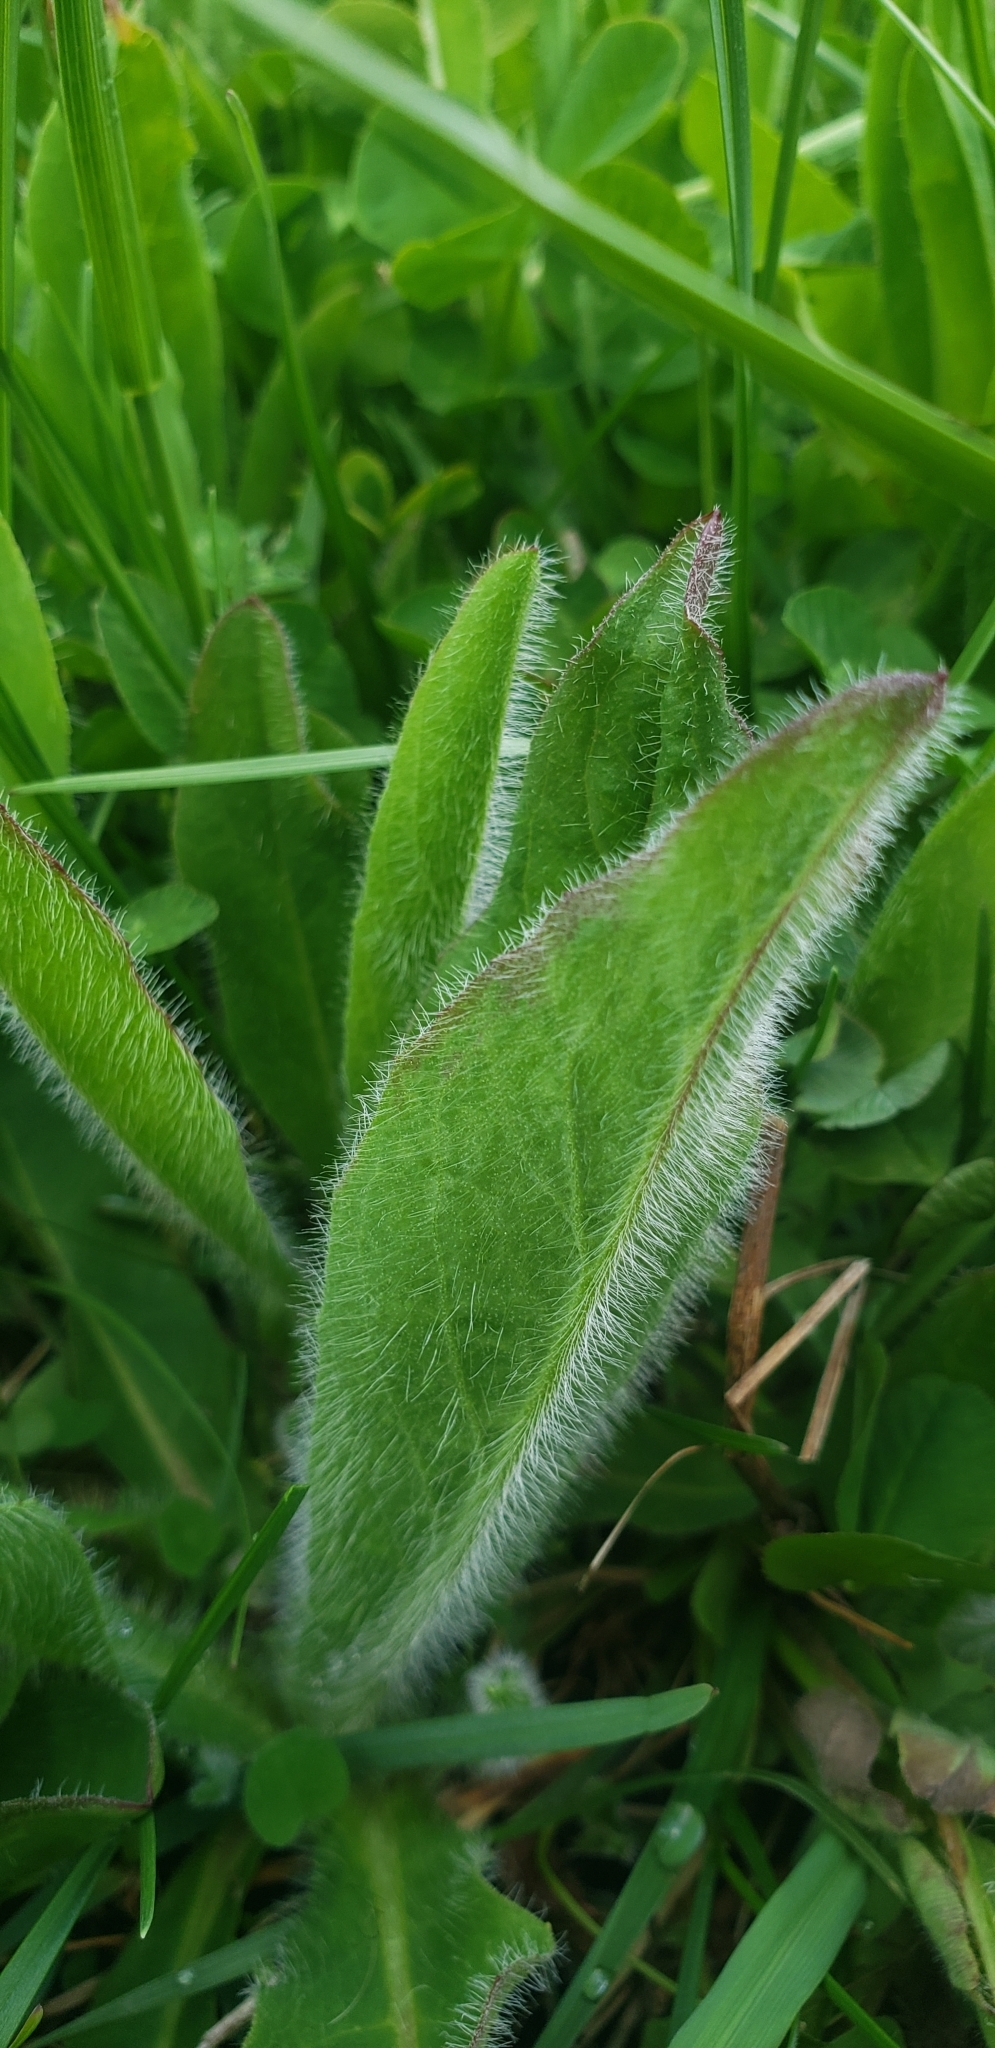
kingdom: Plantae
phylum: Tracheophyta
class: Magnoliopsida
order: Asterales
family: Asteraceae
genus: Pilosella
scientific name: Pilosella aurantiaca
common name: Fox-and-cubs
